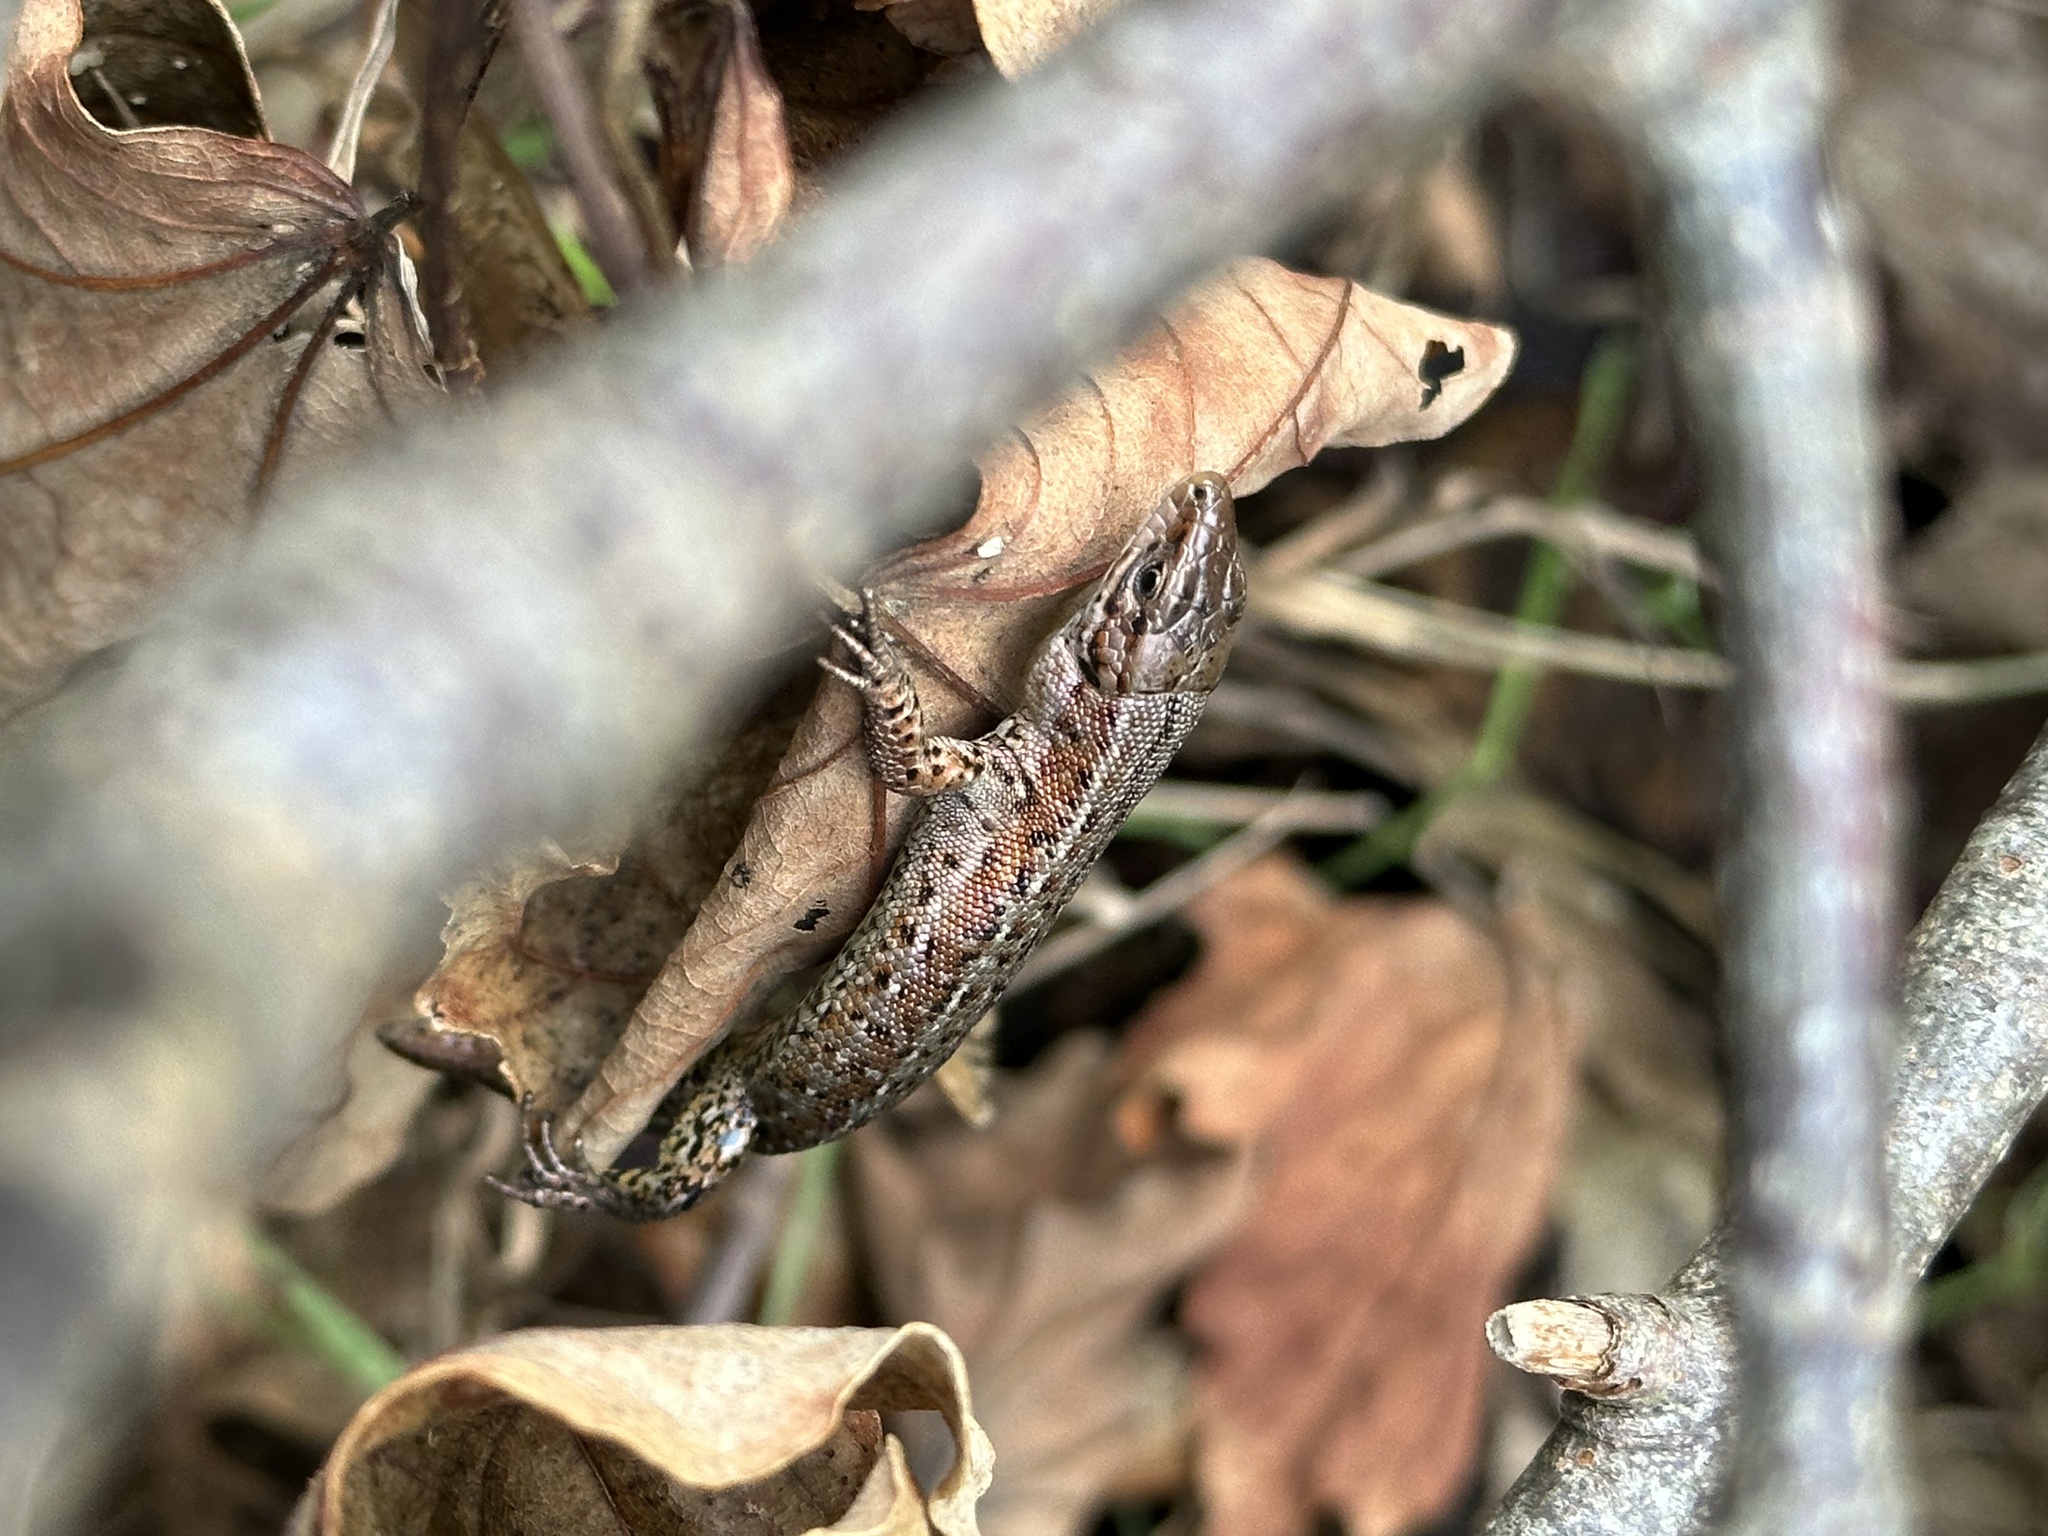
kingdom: Animalia
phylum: Chordata
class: Squamata
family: Lacertidae
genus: Zootoca
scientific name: Zootoca vivipara
